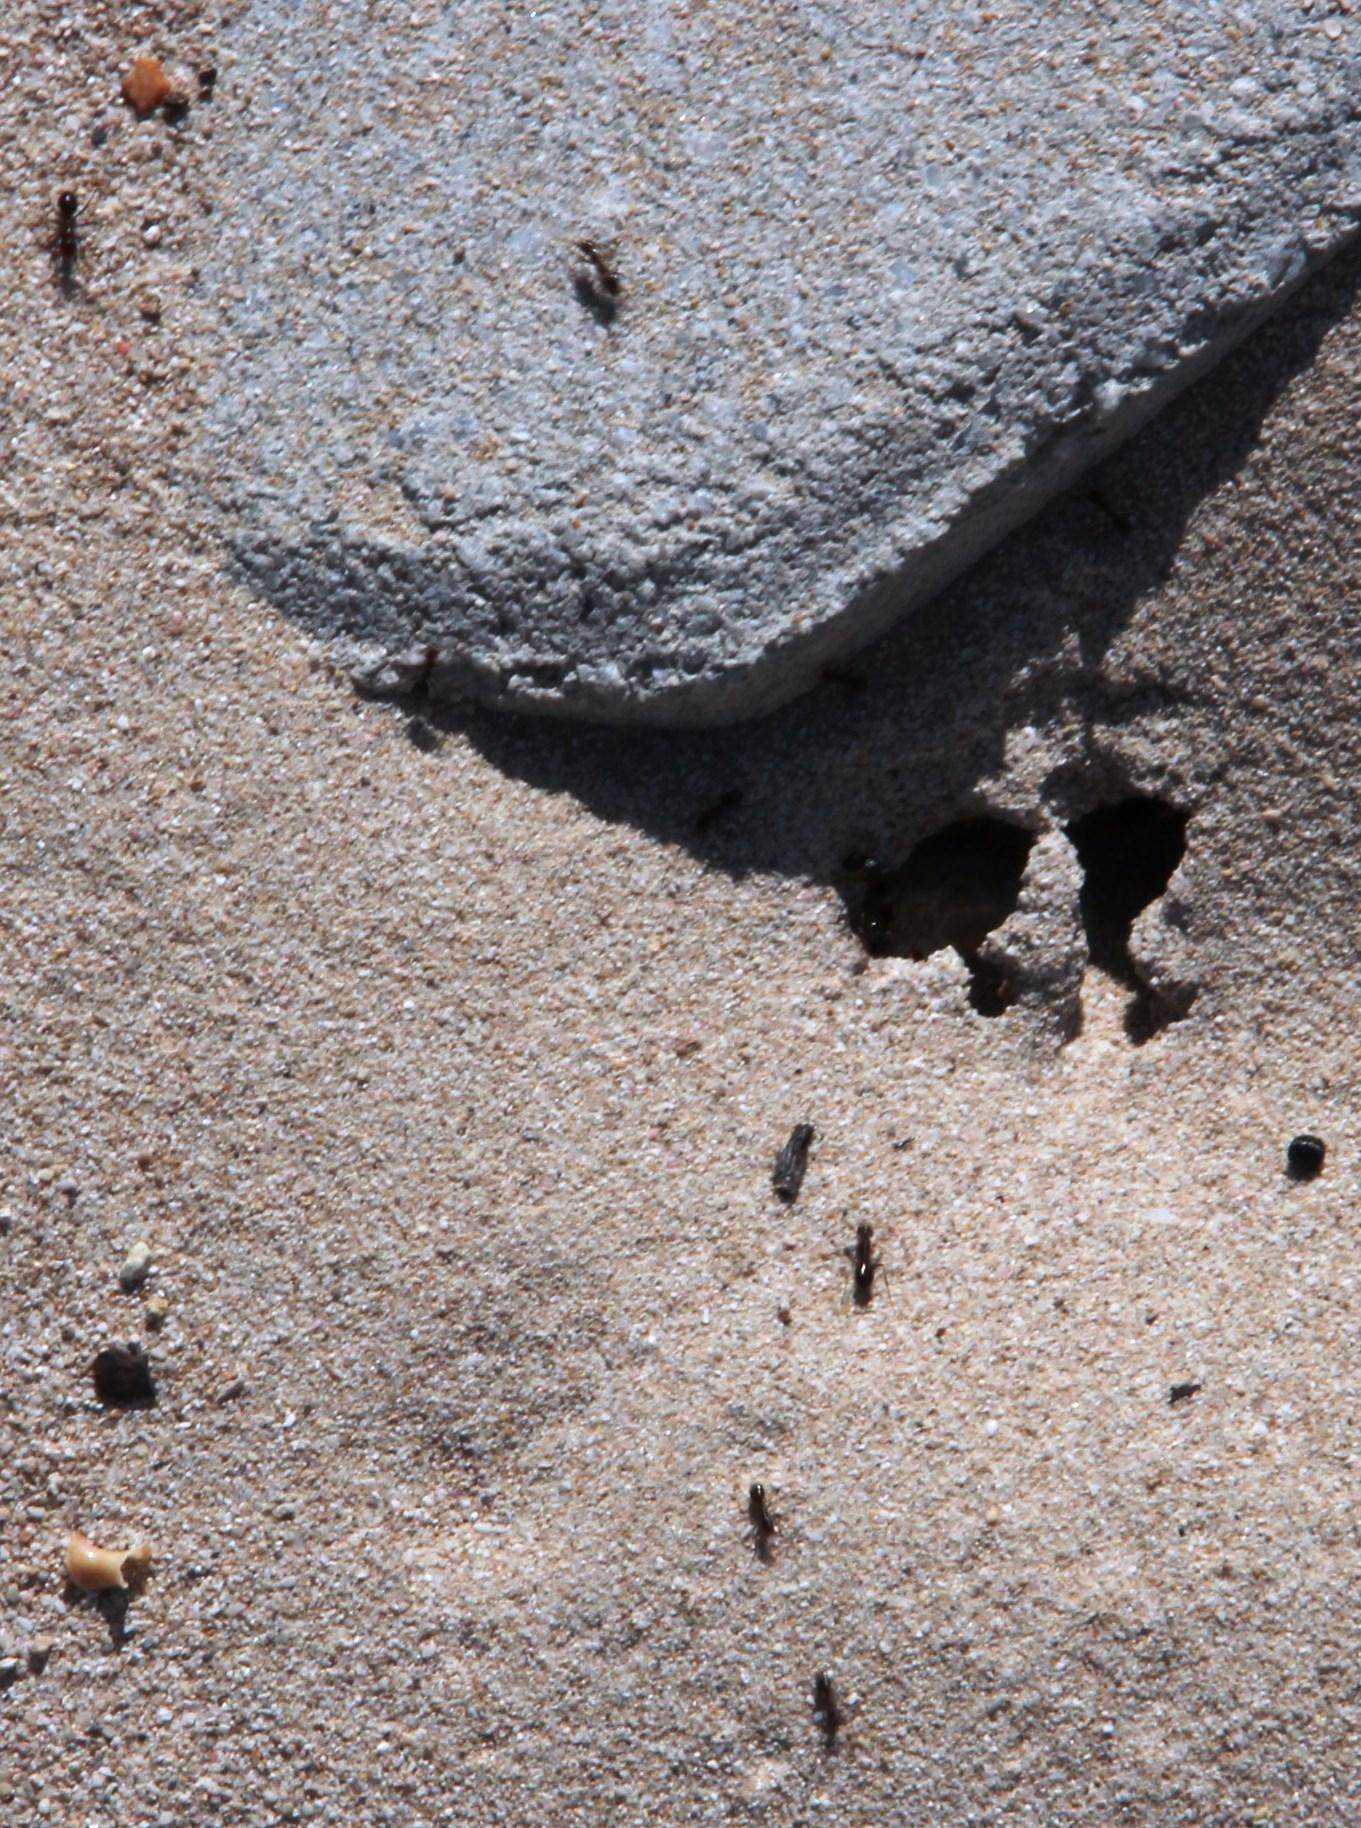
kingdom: Animalia
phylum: Arthropoda
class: Insecta
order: Hymenoptera
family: Formicidae
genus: Anoplolepis
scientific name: Anoplolepis steingroeveri
